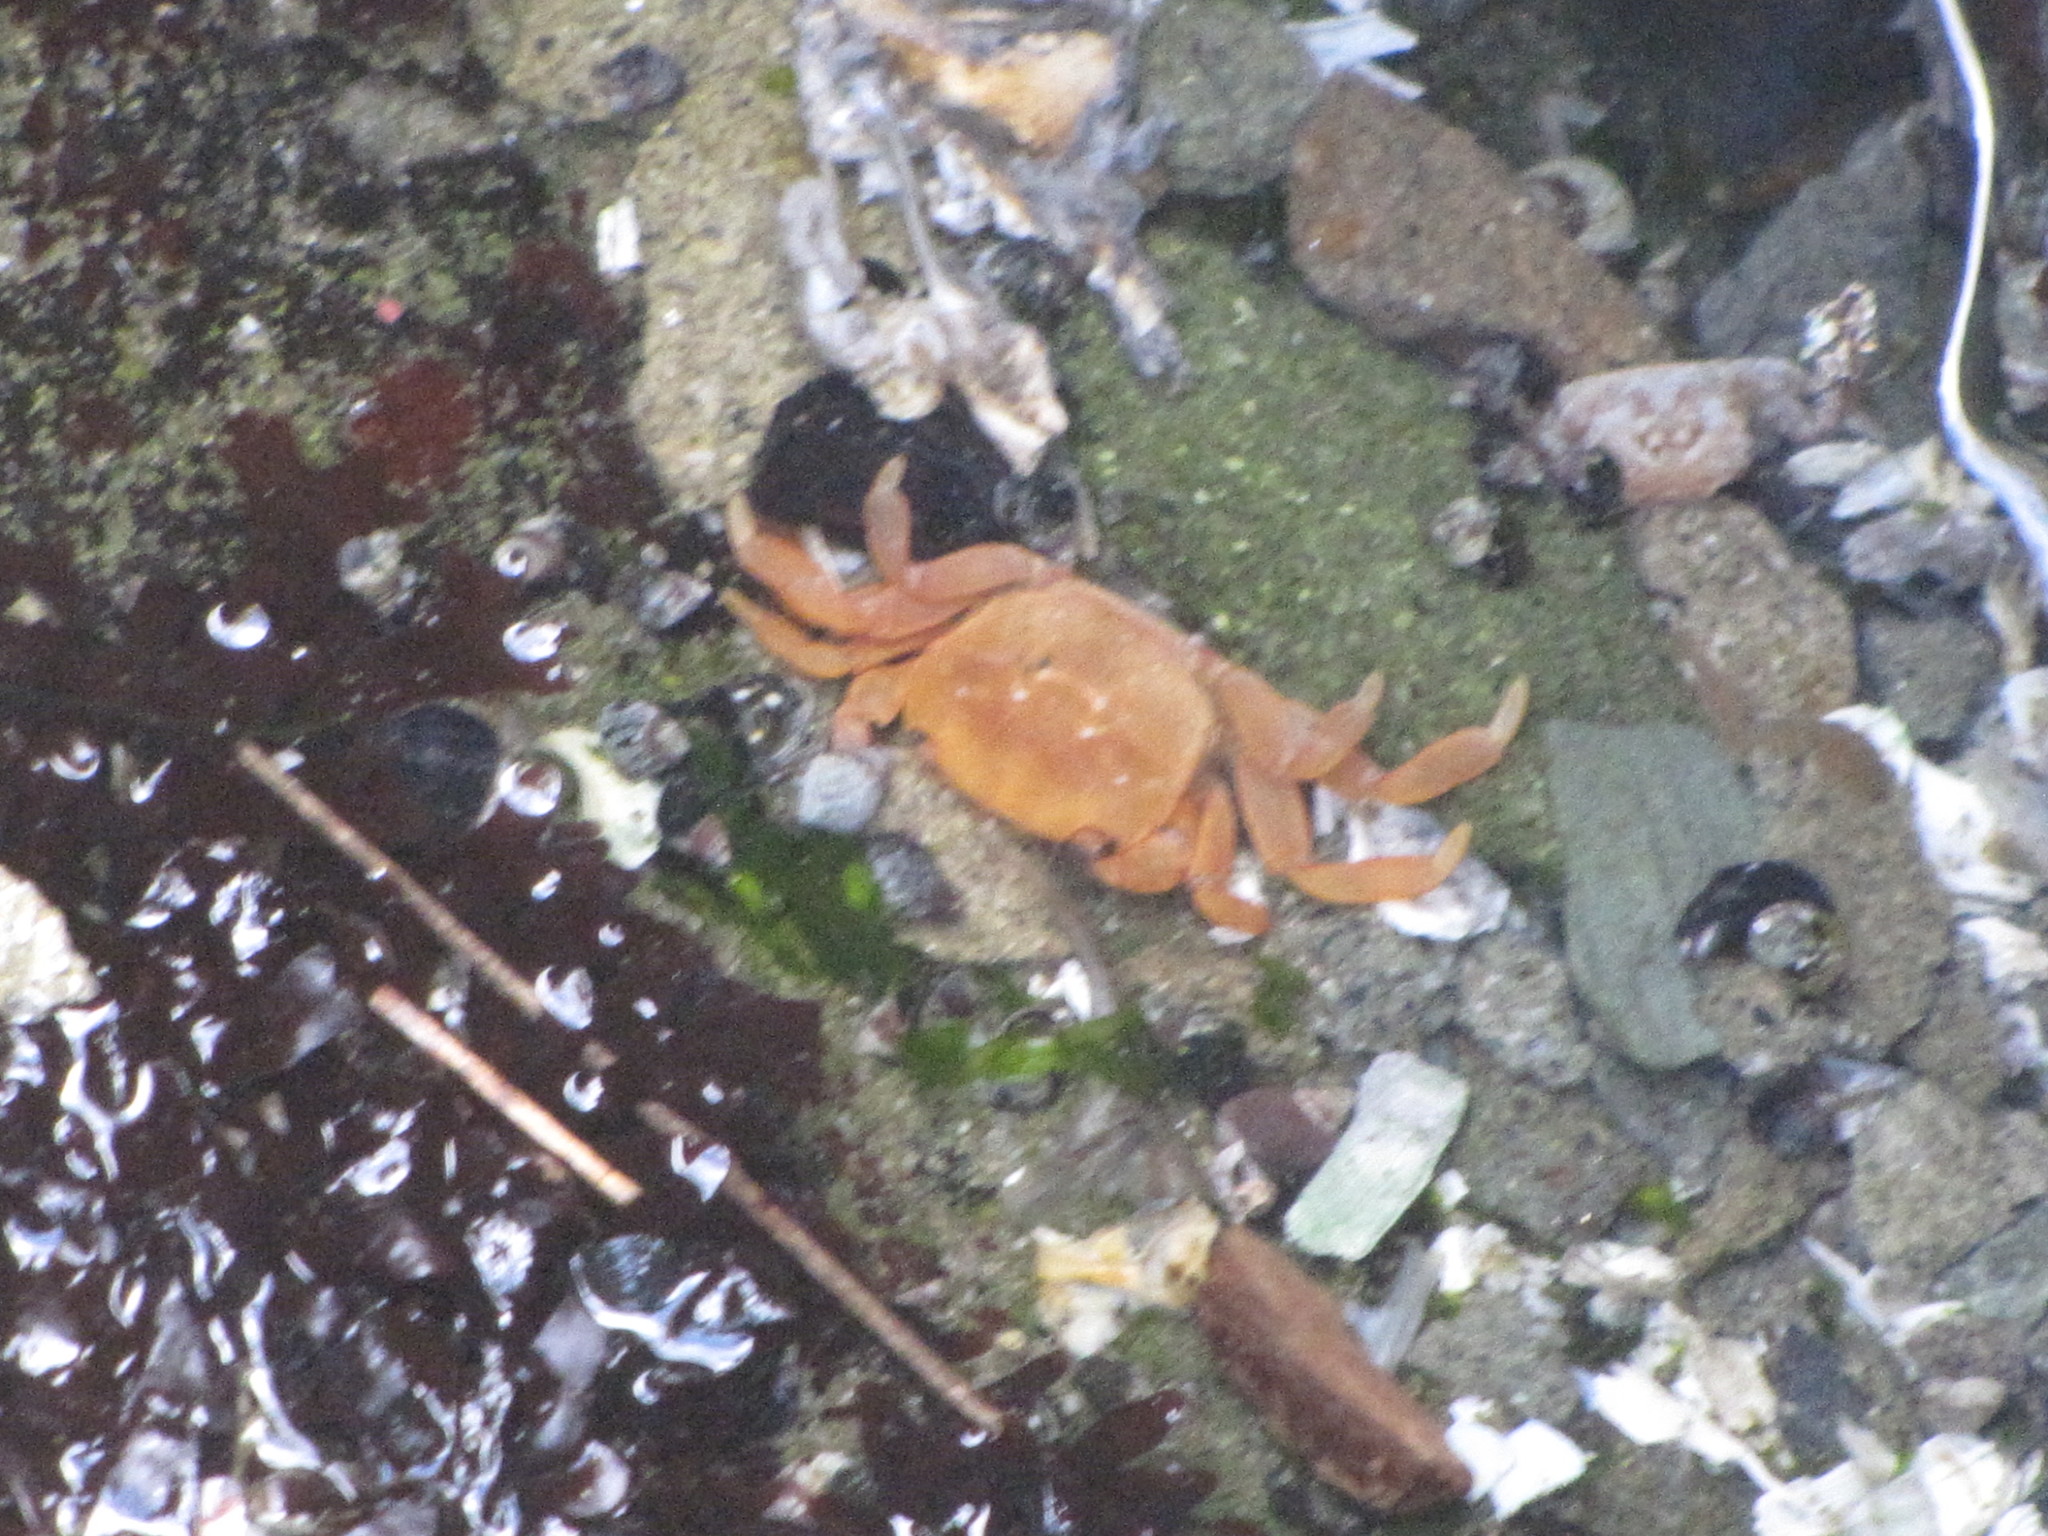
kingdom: Animalia
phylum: Arthropoda
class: Malacostraca
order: Decapoda
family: Varunidae
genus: Hemigrapsus
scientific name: Hemigrapsus nudus
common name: Purple shore crab
